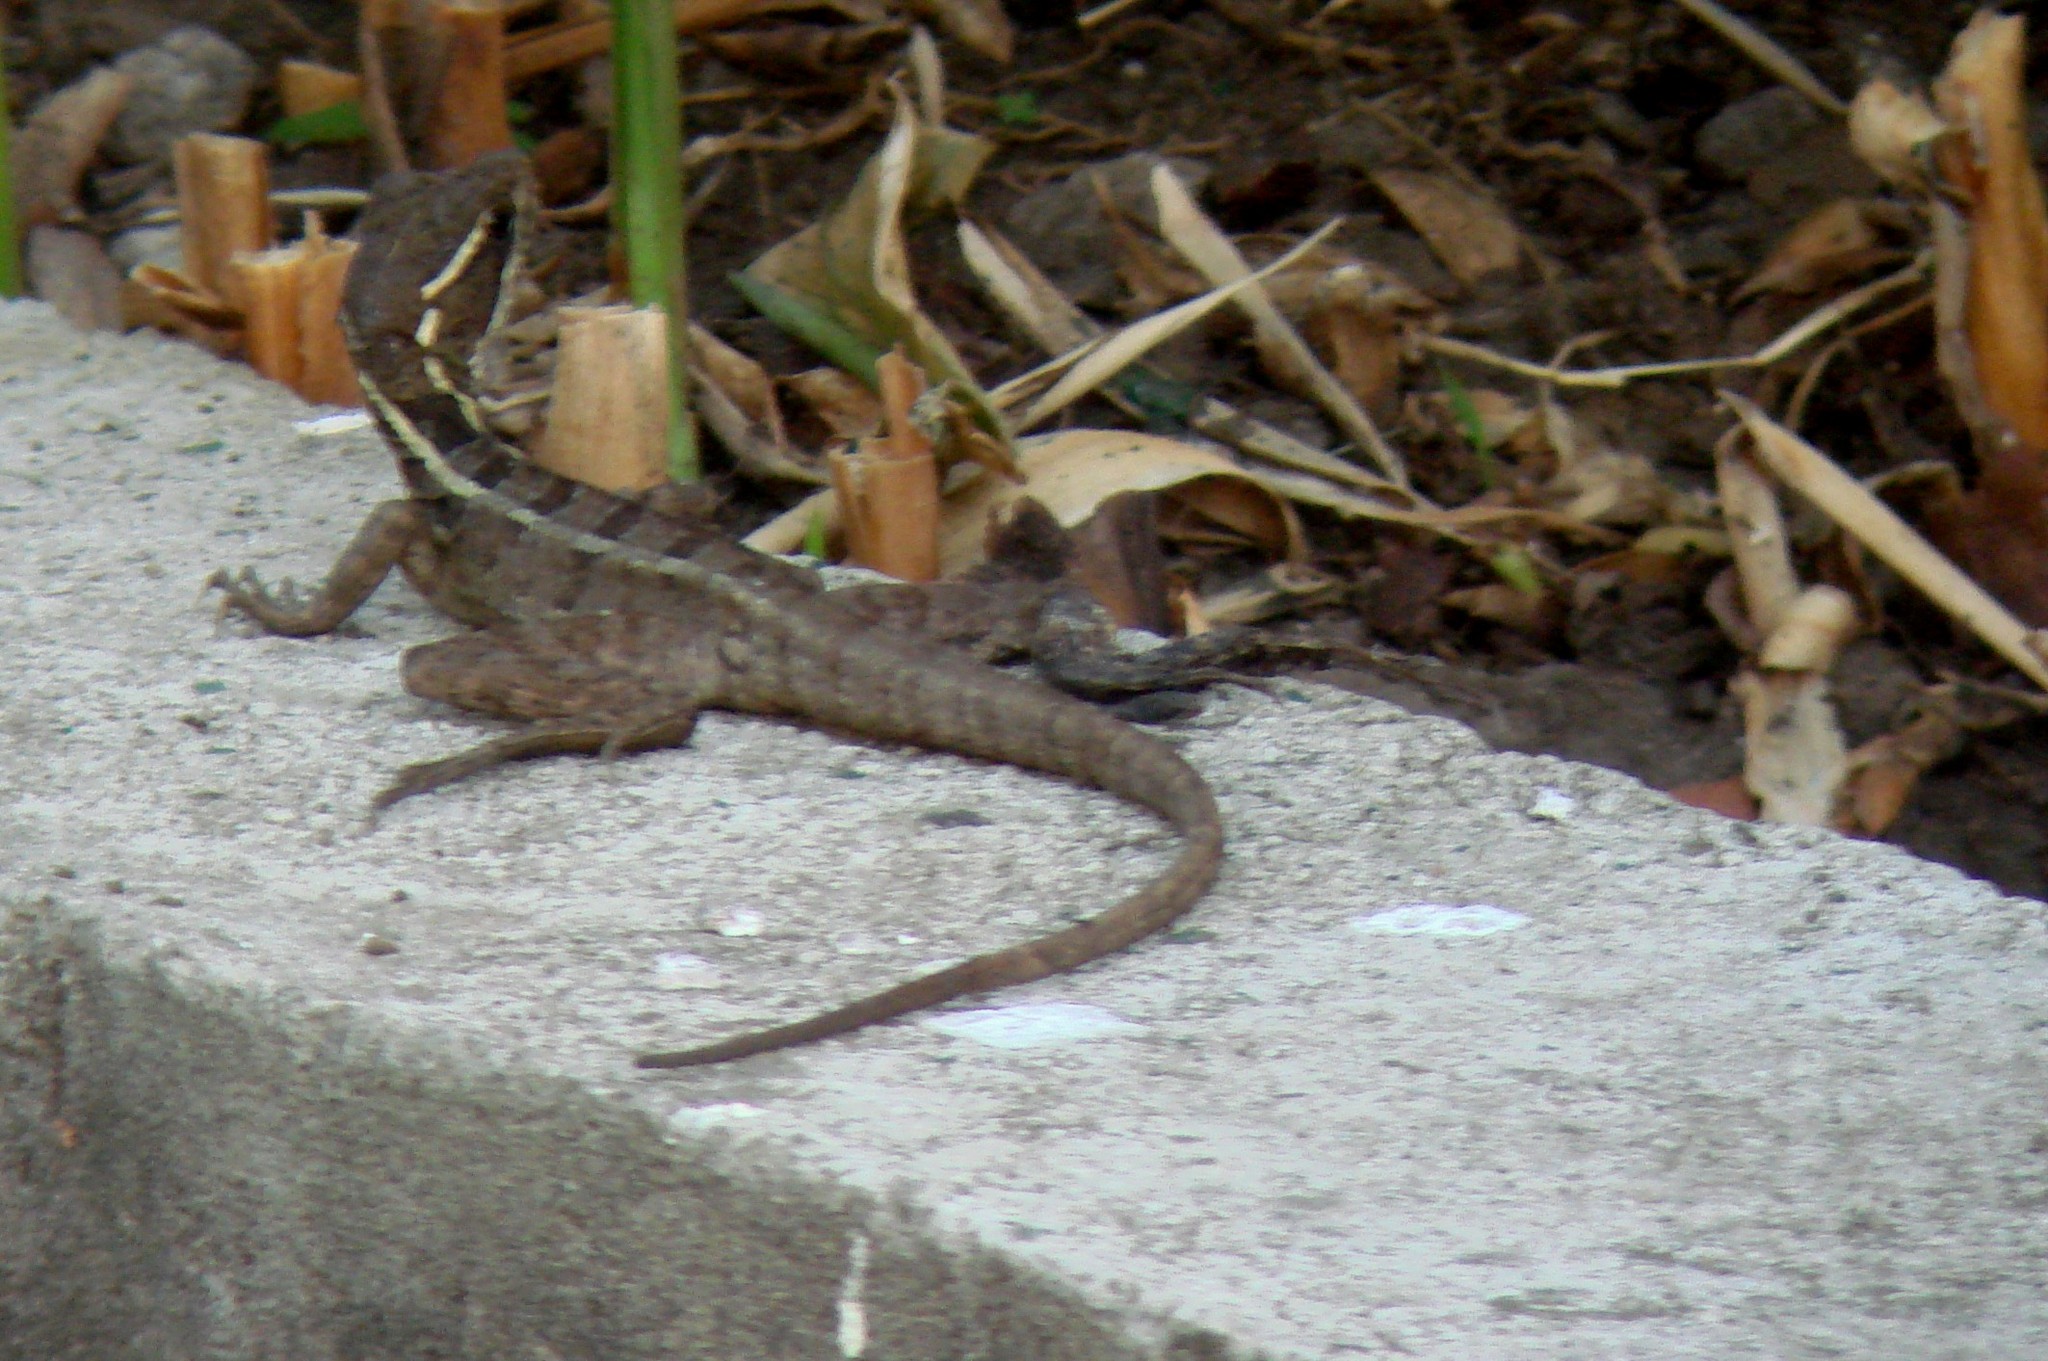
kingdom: Animalia
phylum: Chordata
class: Squamata
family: Corytophanidae
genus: Basiliscus
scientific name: Basiliscus vittatus
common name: Brown basilisk
